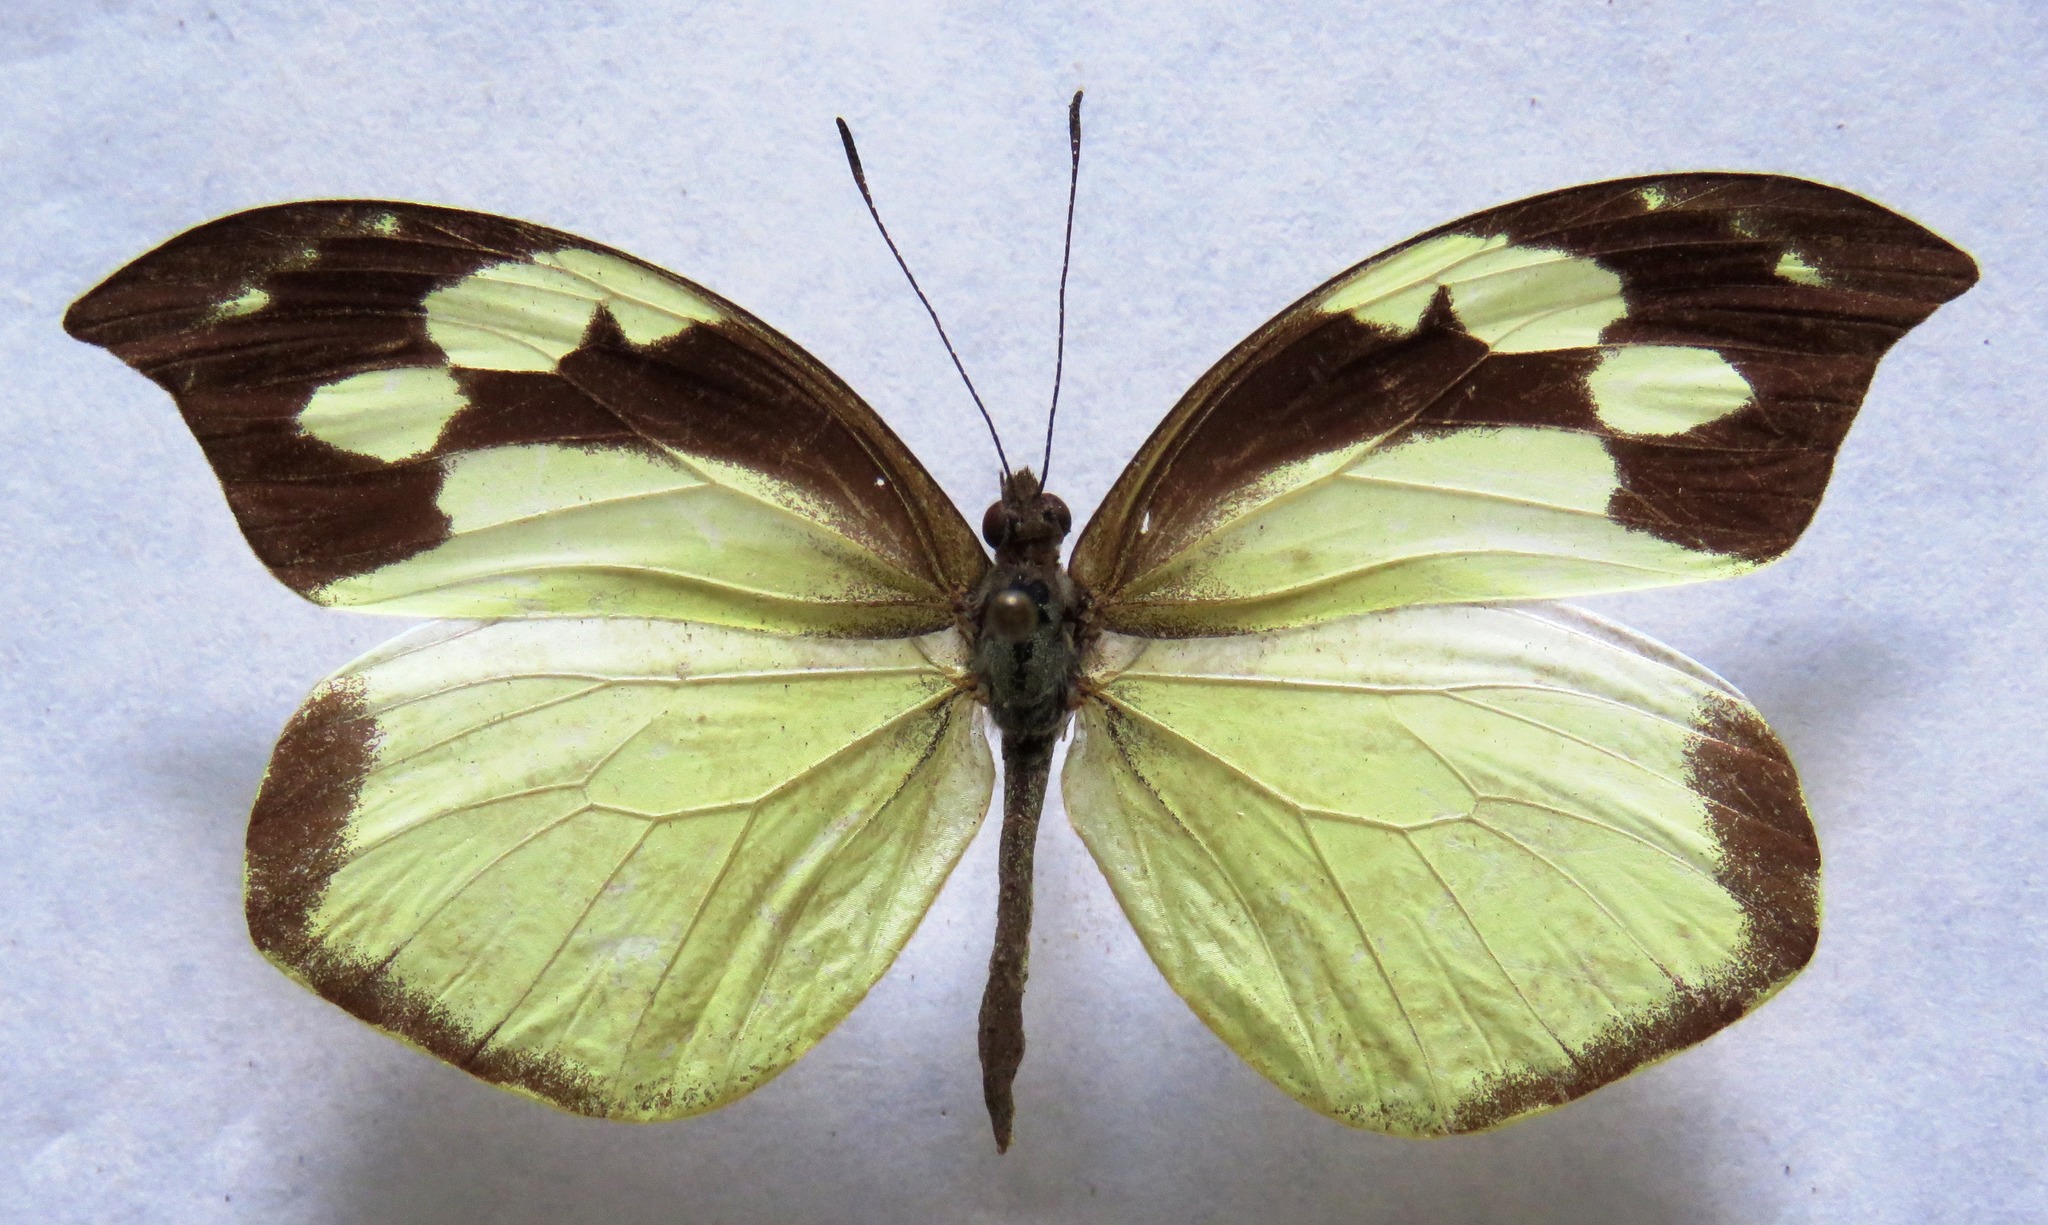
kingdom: Animalia
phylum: Arthropoda
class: Insecta
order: Lepidoptera
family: Pieridae
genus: Lieinix
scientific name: Lieinix nemesis
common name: Frosted mimic-white
